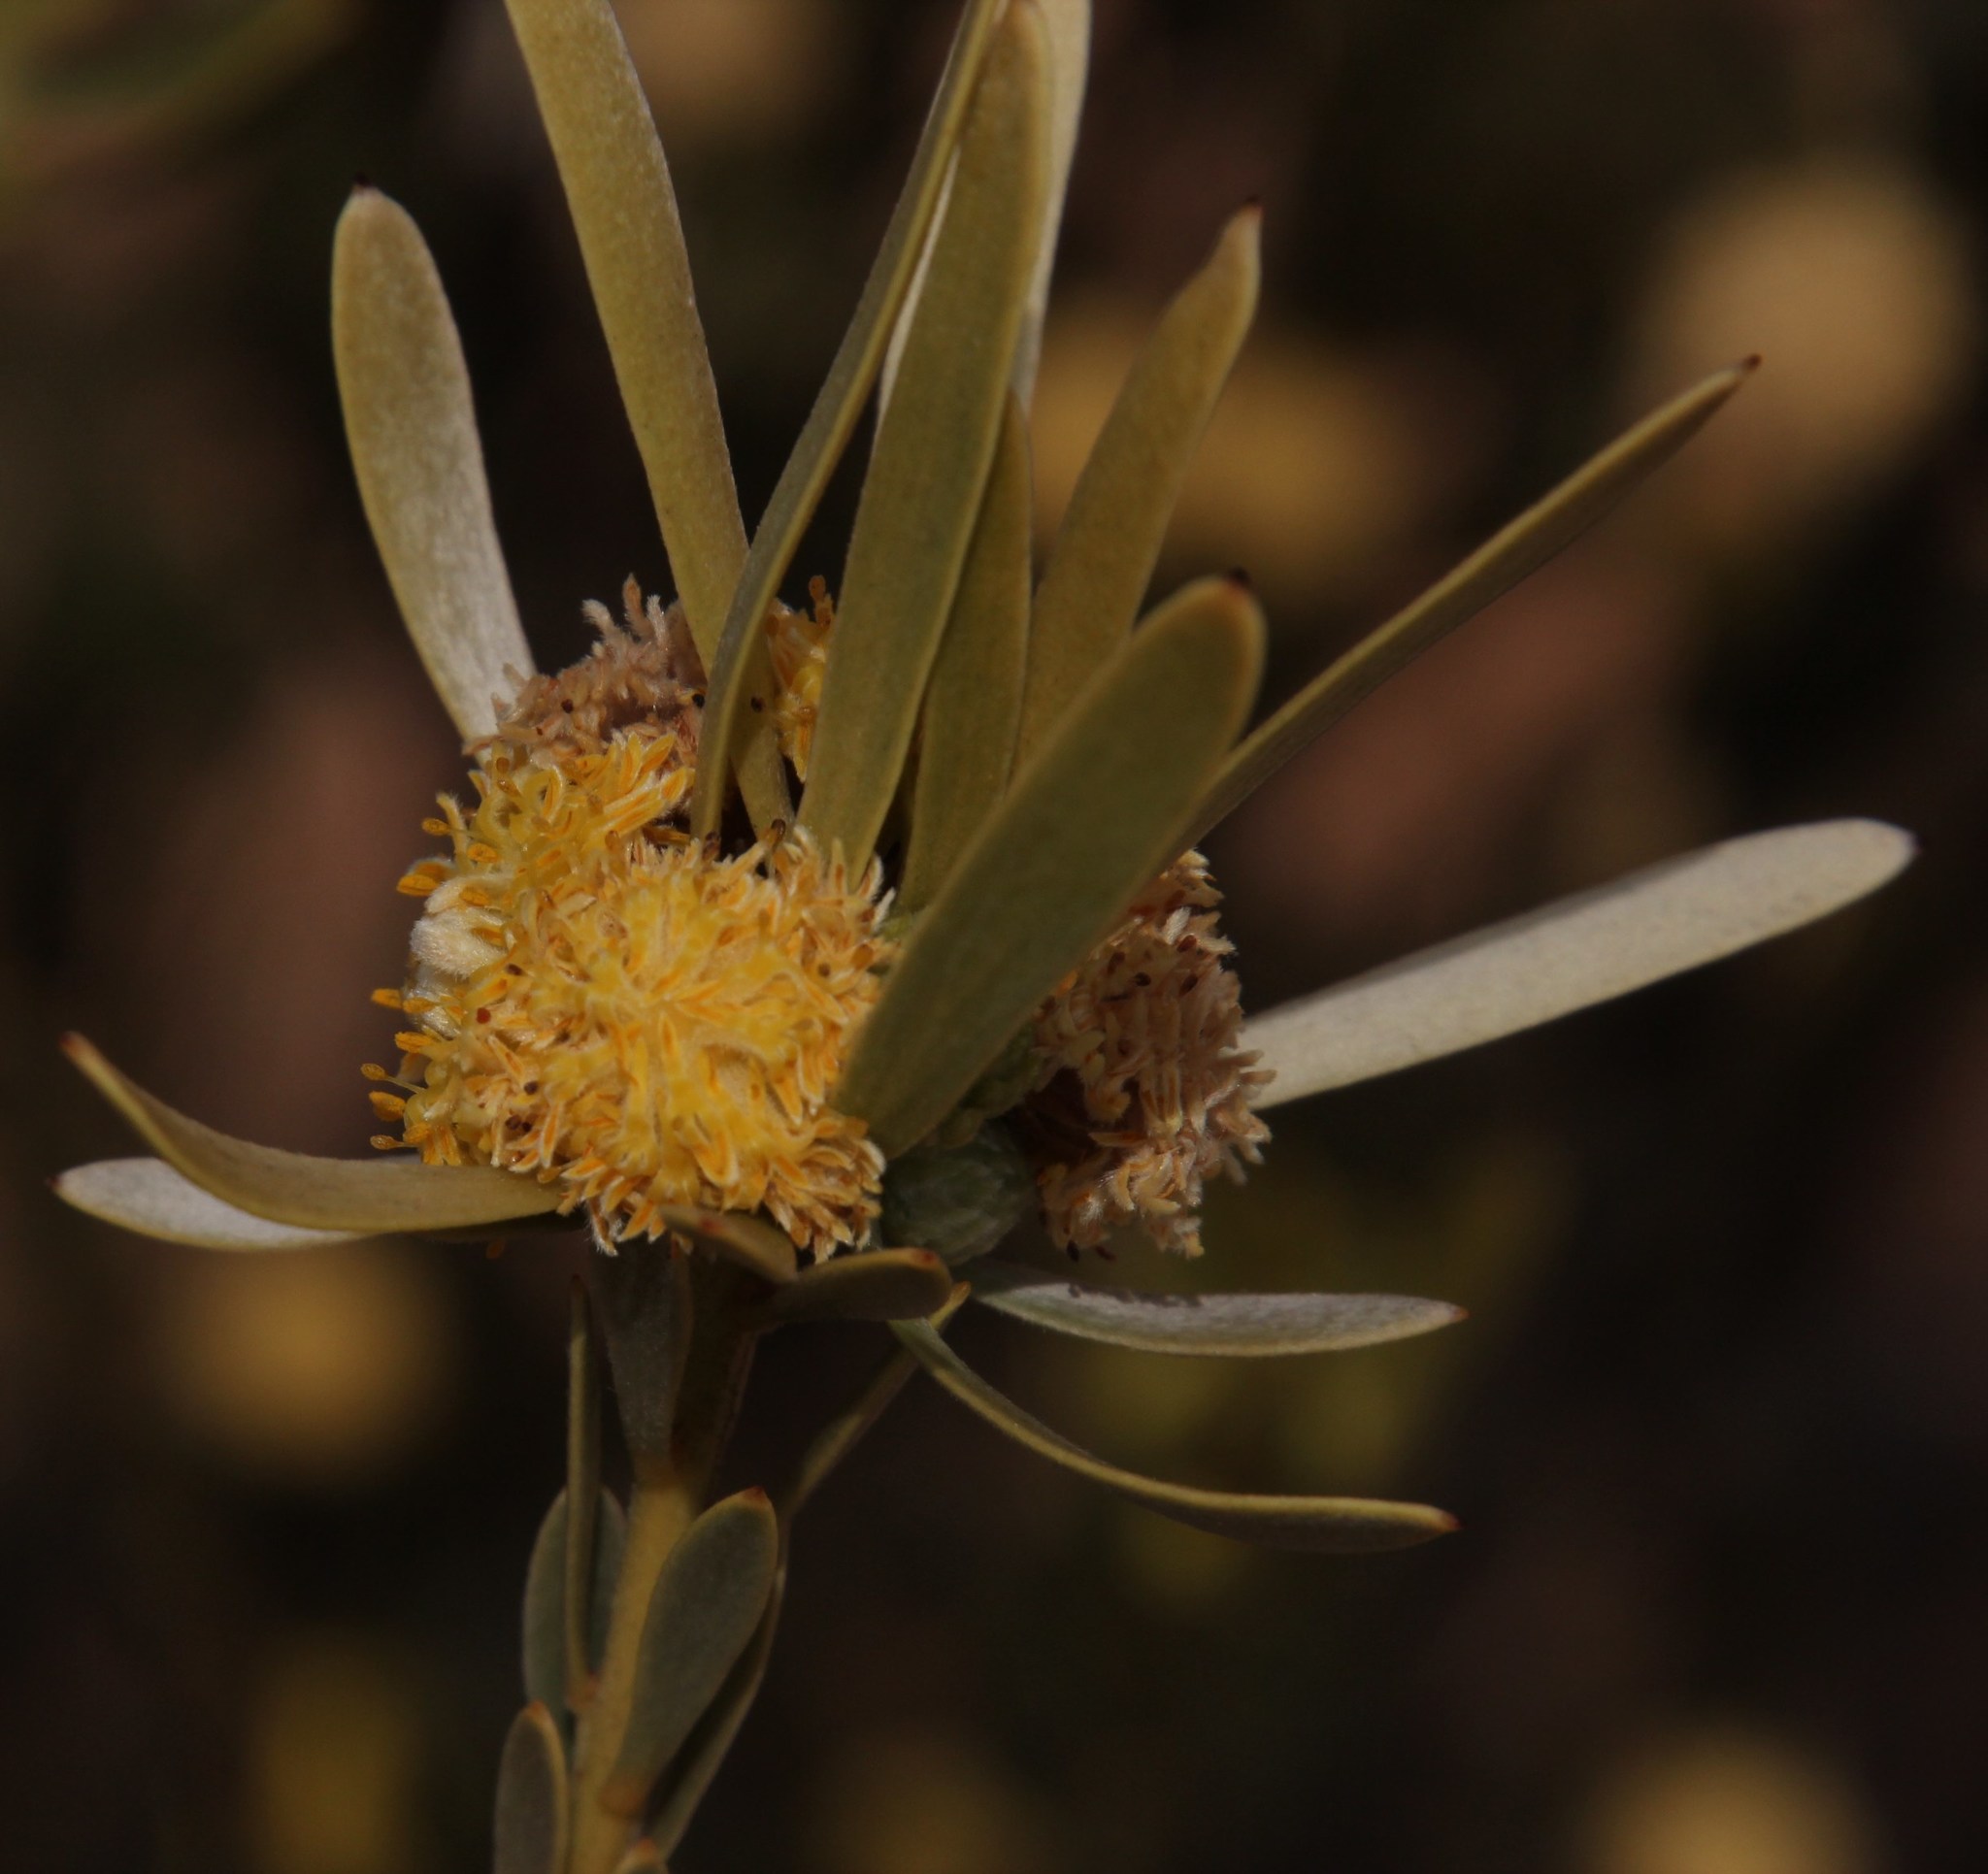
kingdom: Plantae
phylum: Tracheophyta
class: Magnoliopsida
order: Proteales
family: Proteaceae
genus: Leucadendron
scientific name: Leucadendron nitidum
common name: Bokkeveld conebush
